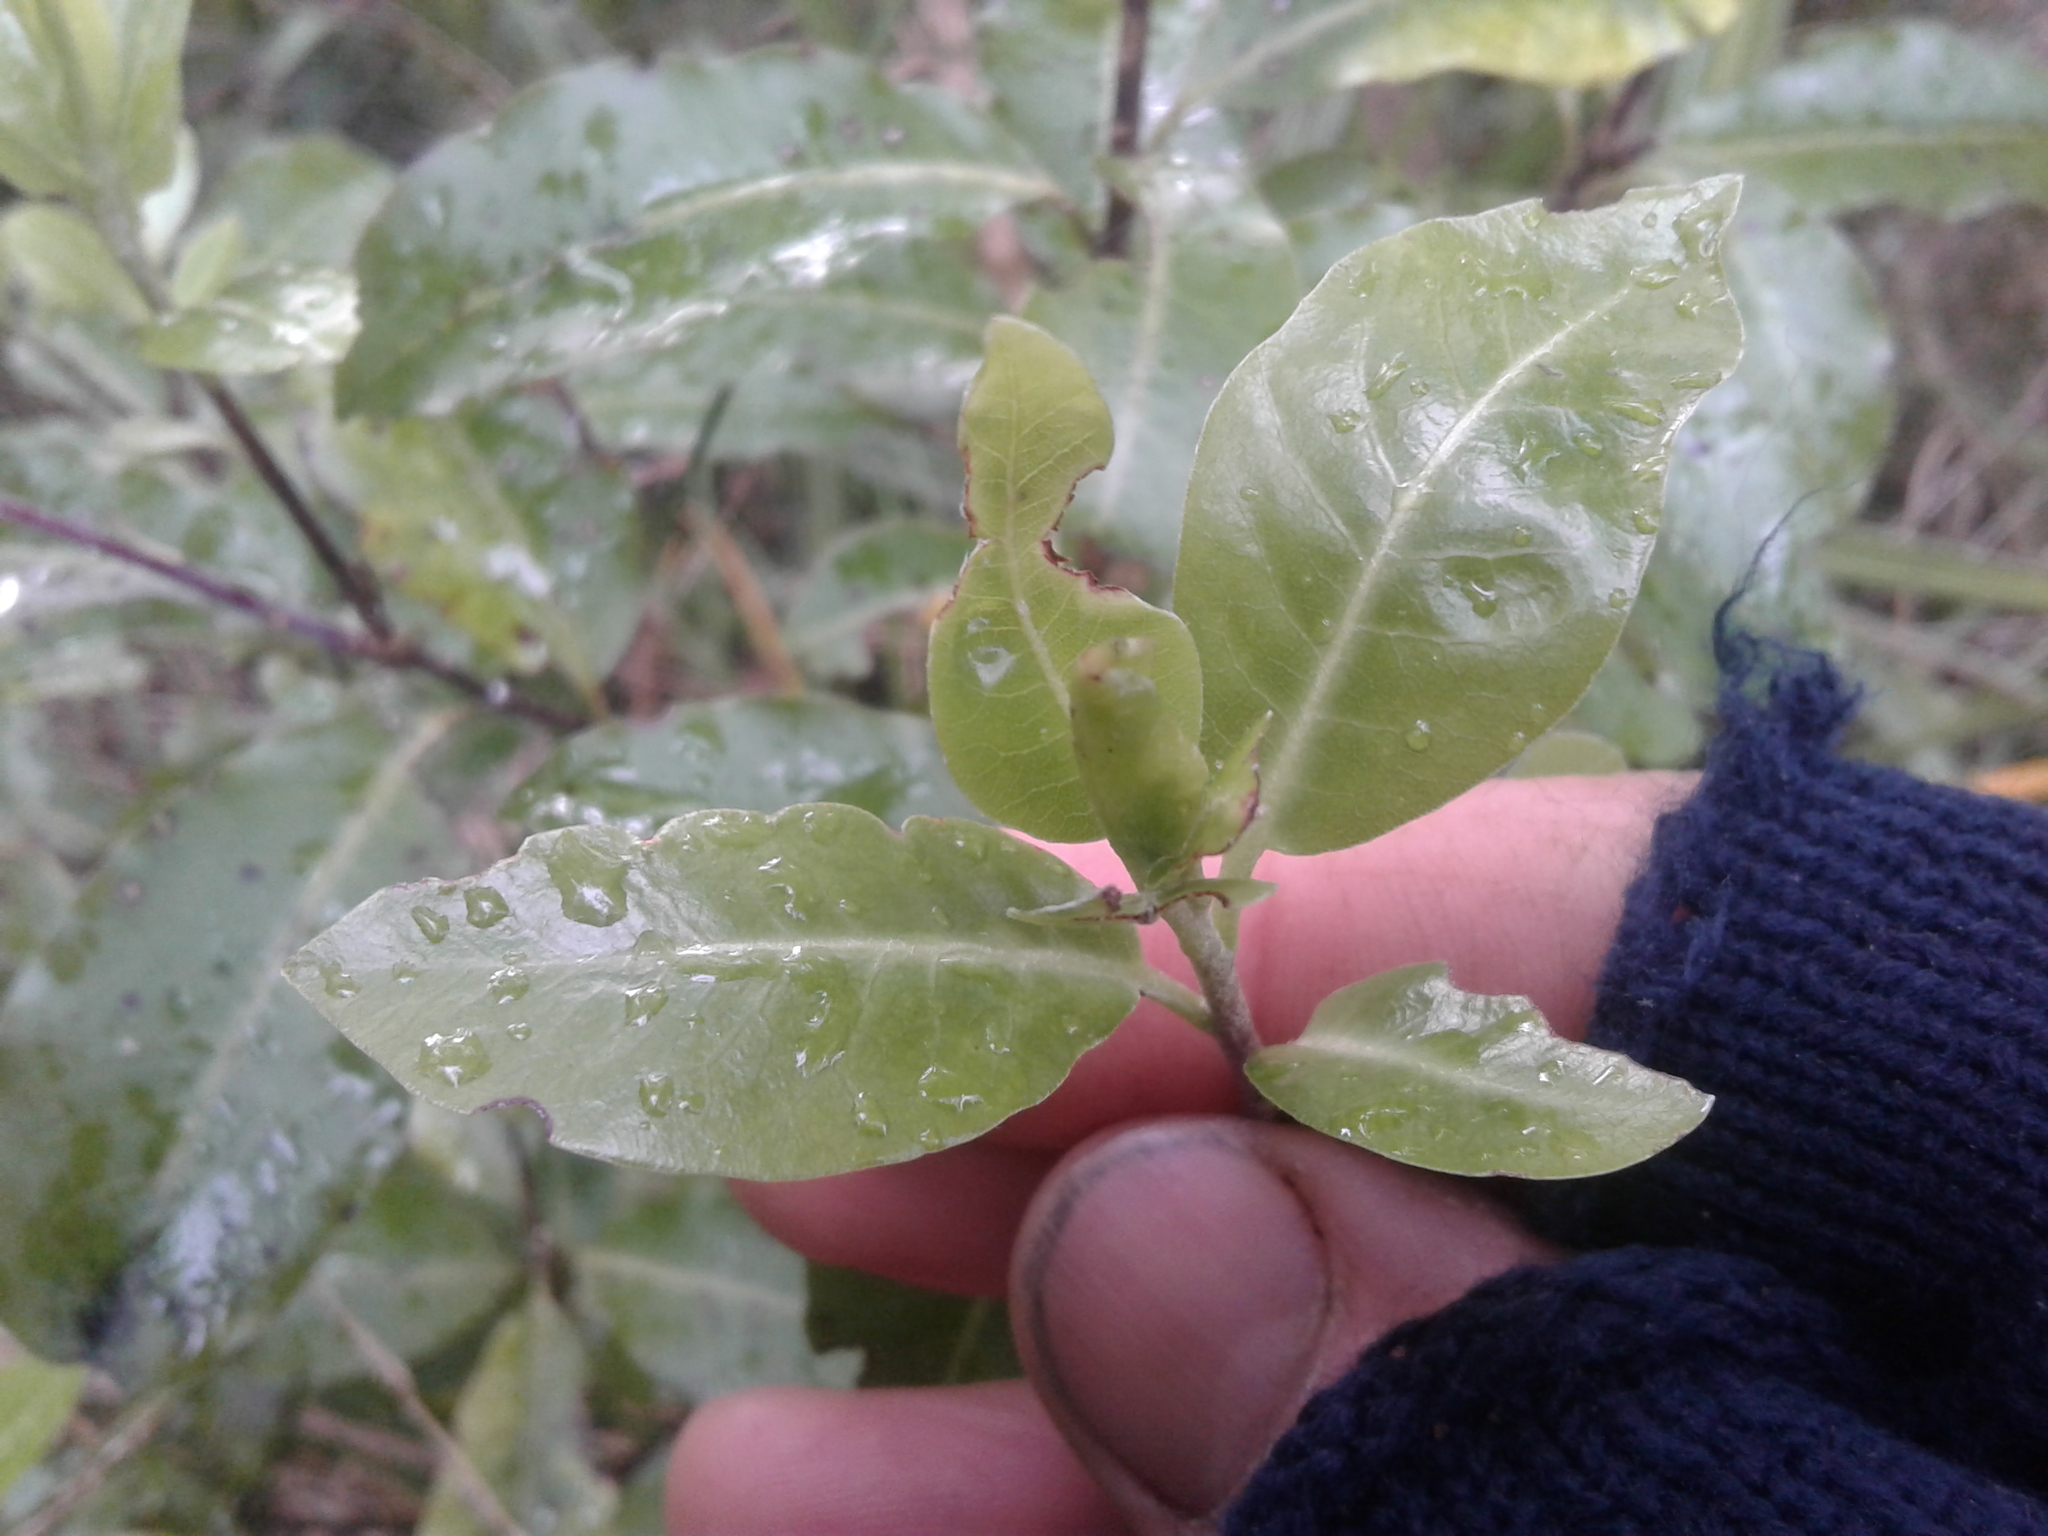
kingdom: Plantae
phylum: Tracheophyta
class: Magnoliopsida
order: Apiales
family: Pittosporaceae
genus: Pittosporum
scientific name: Pittosporum tenuifolium
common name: Kohuhu
